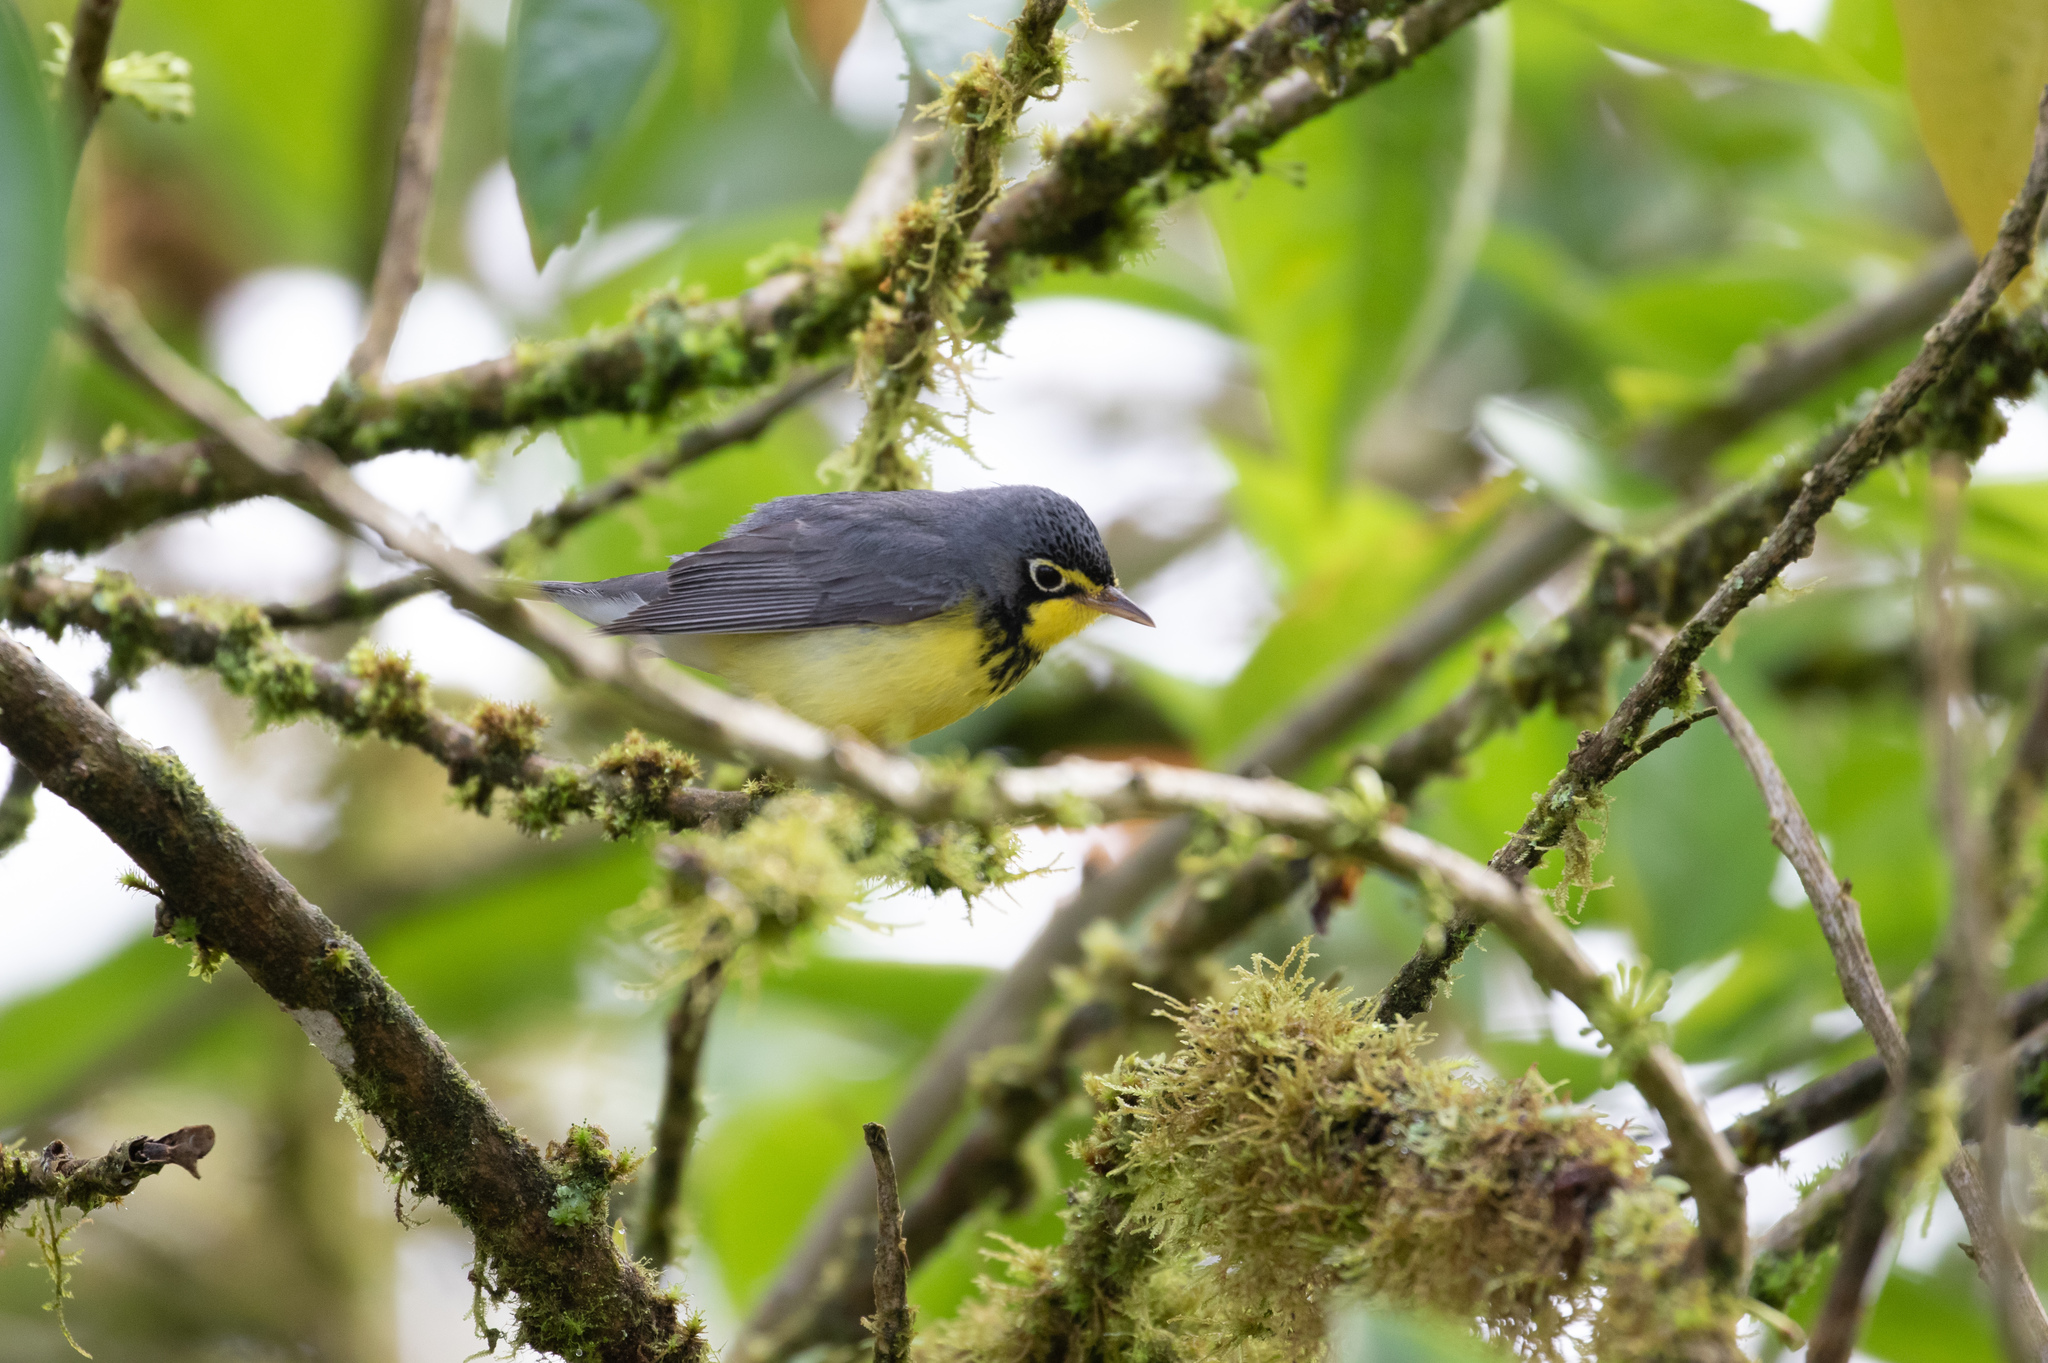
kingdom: Animalia
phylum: Chordata
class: Aves
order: Passeriformes
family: Parulidae
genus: Cardellina
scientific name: Cardellina canadensis
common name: Canada warbler
